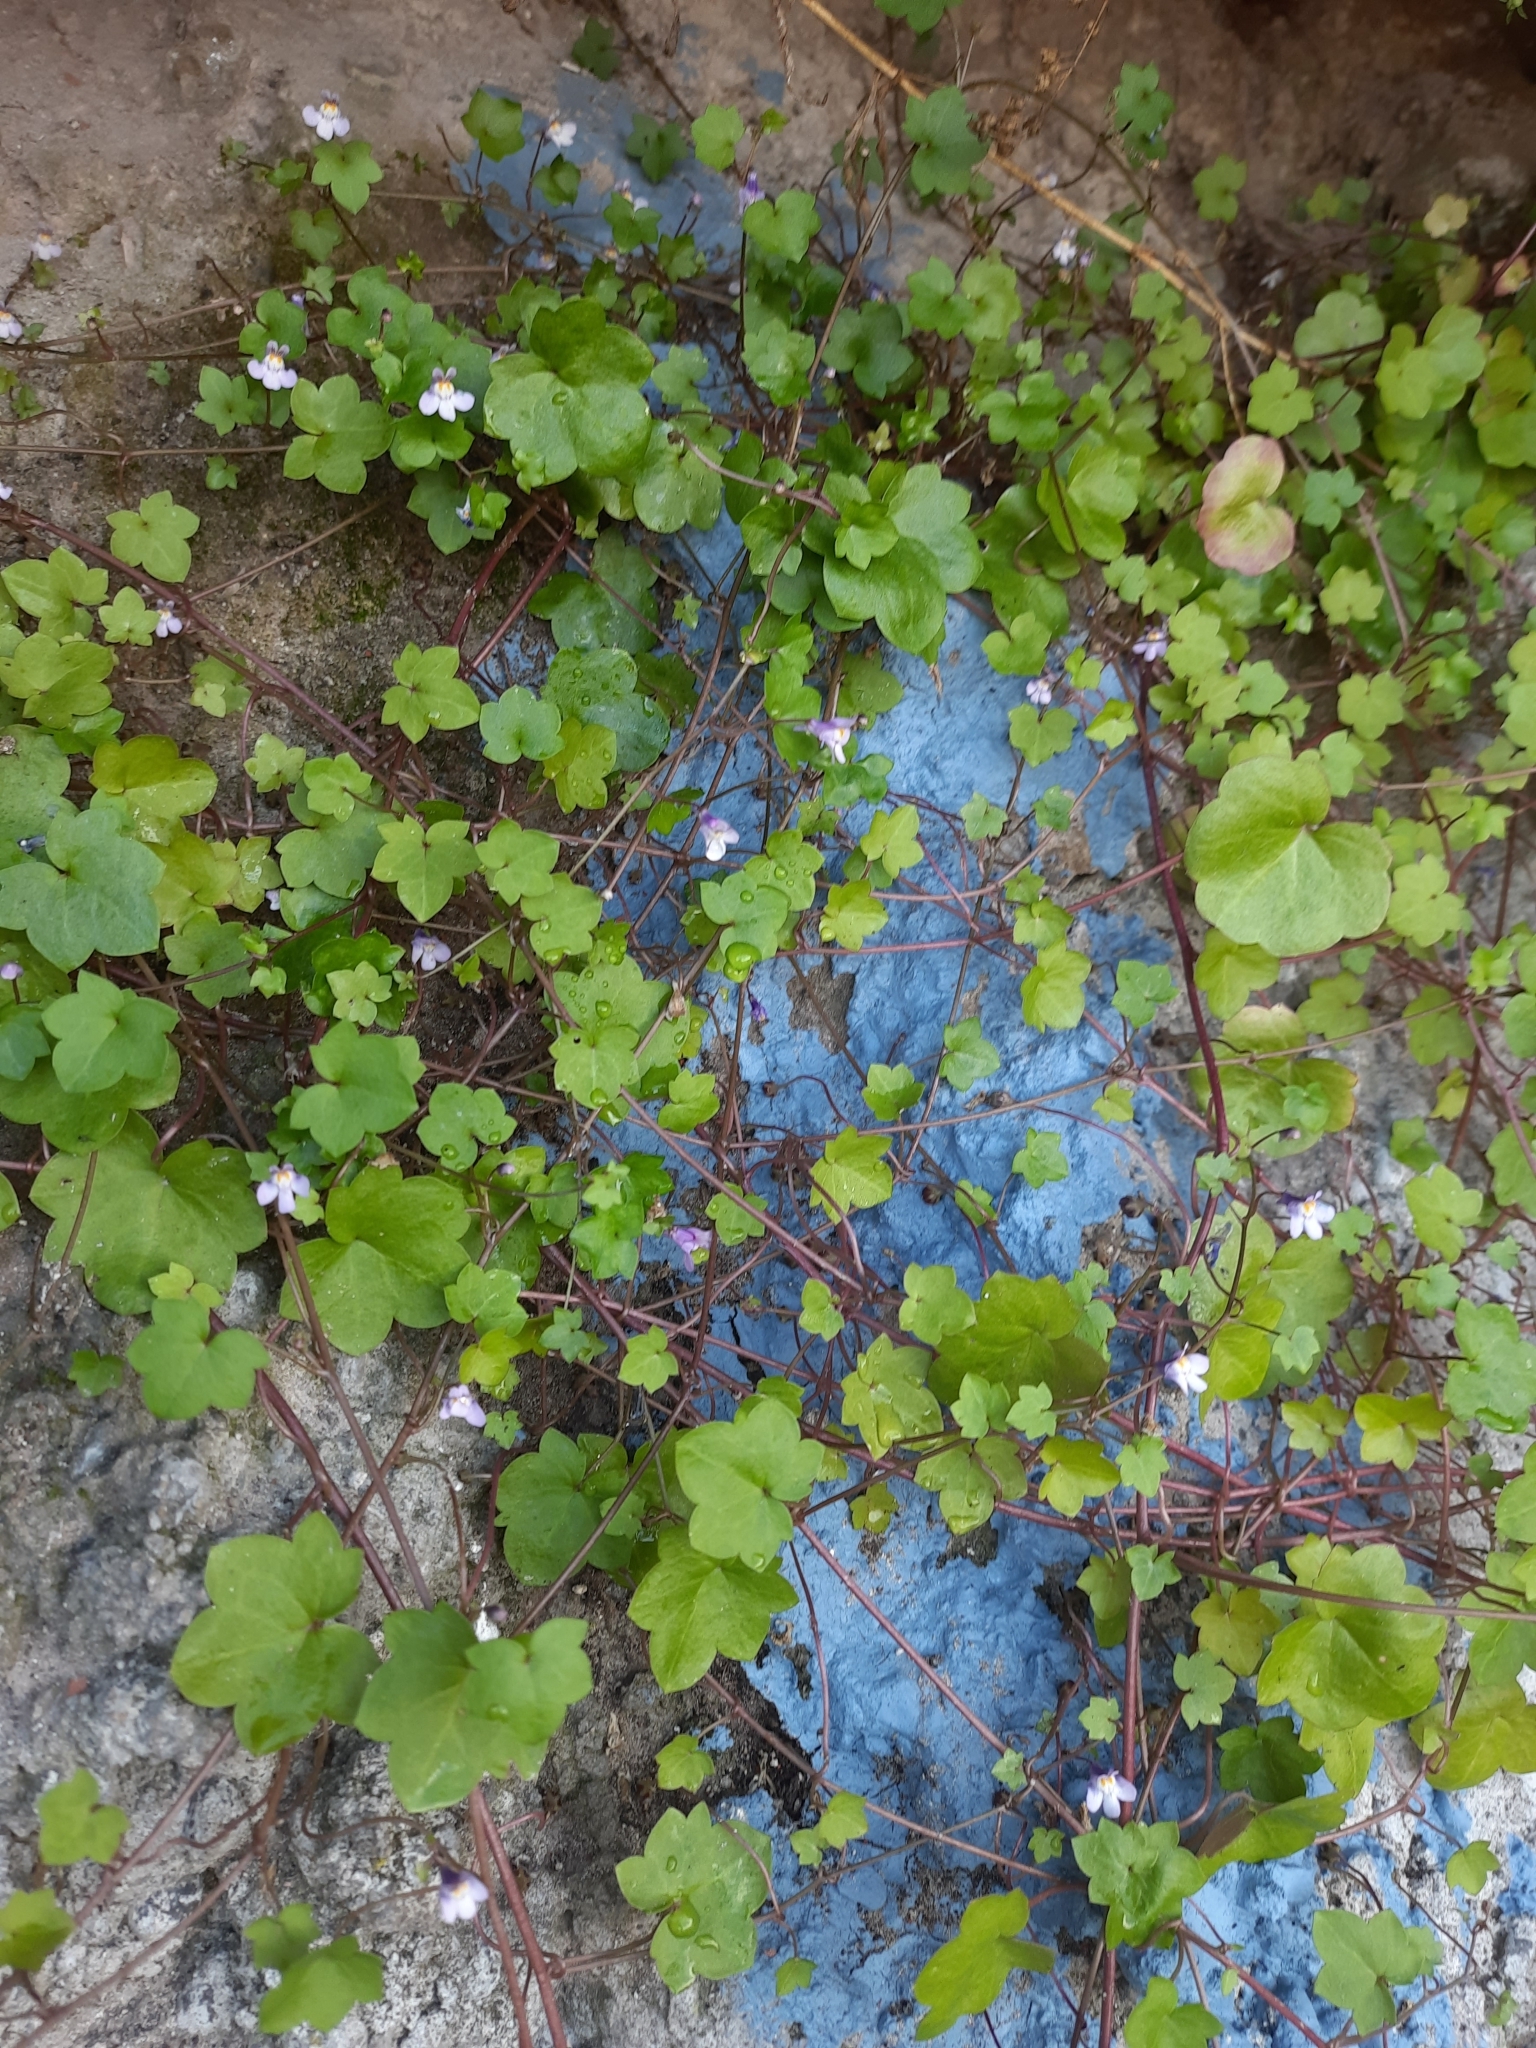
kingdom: Plantae
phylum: Tracheophyta
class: Magnoliopsida
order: Lamiales
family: Plantaginaceae
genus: Cymbalaria
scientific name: Cymbalaria muralis
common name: Ivy-leaved toadflax
